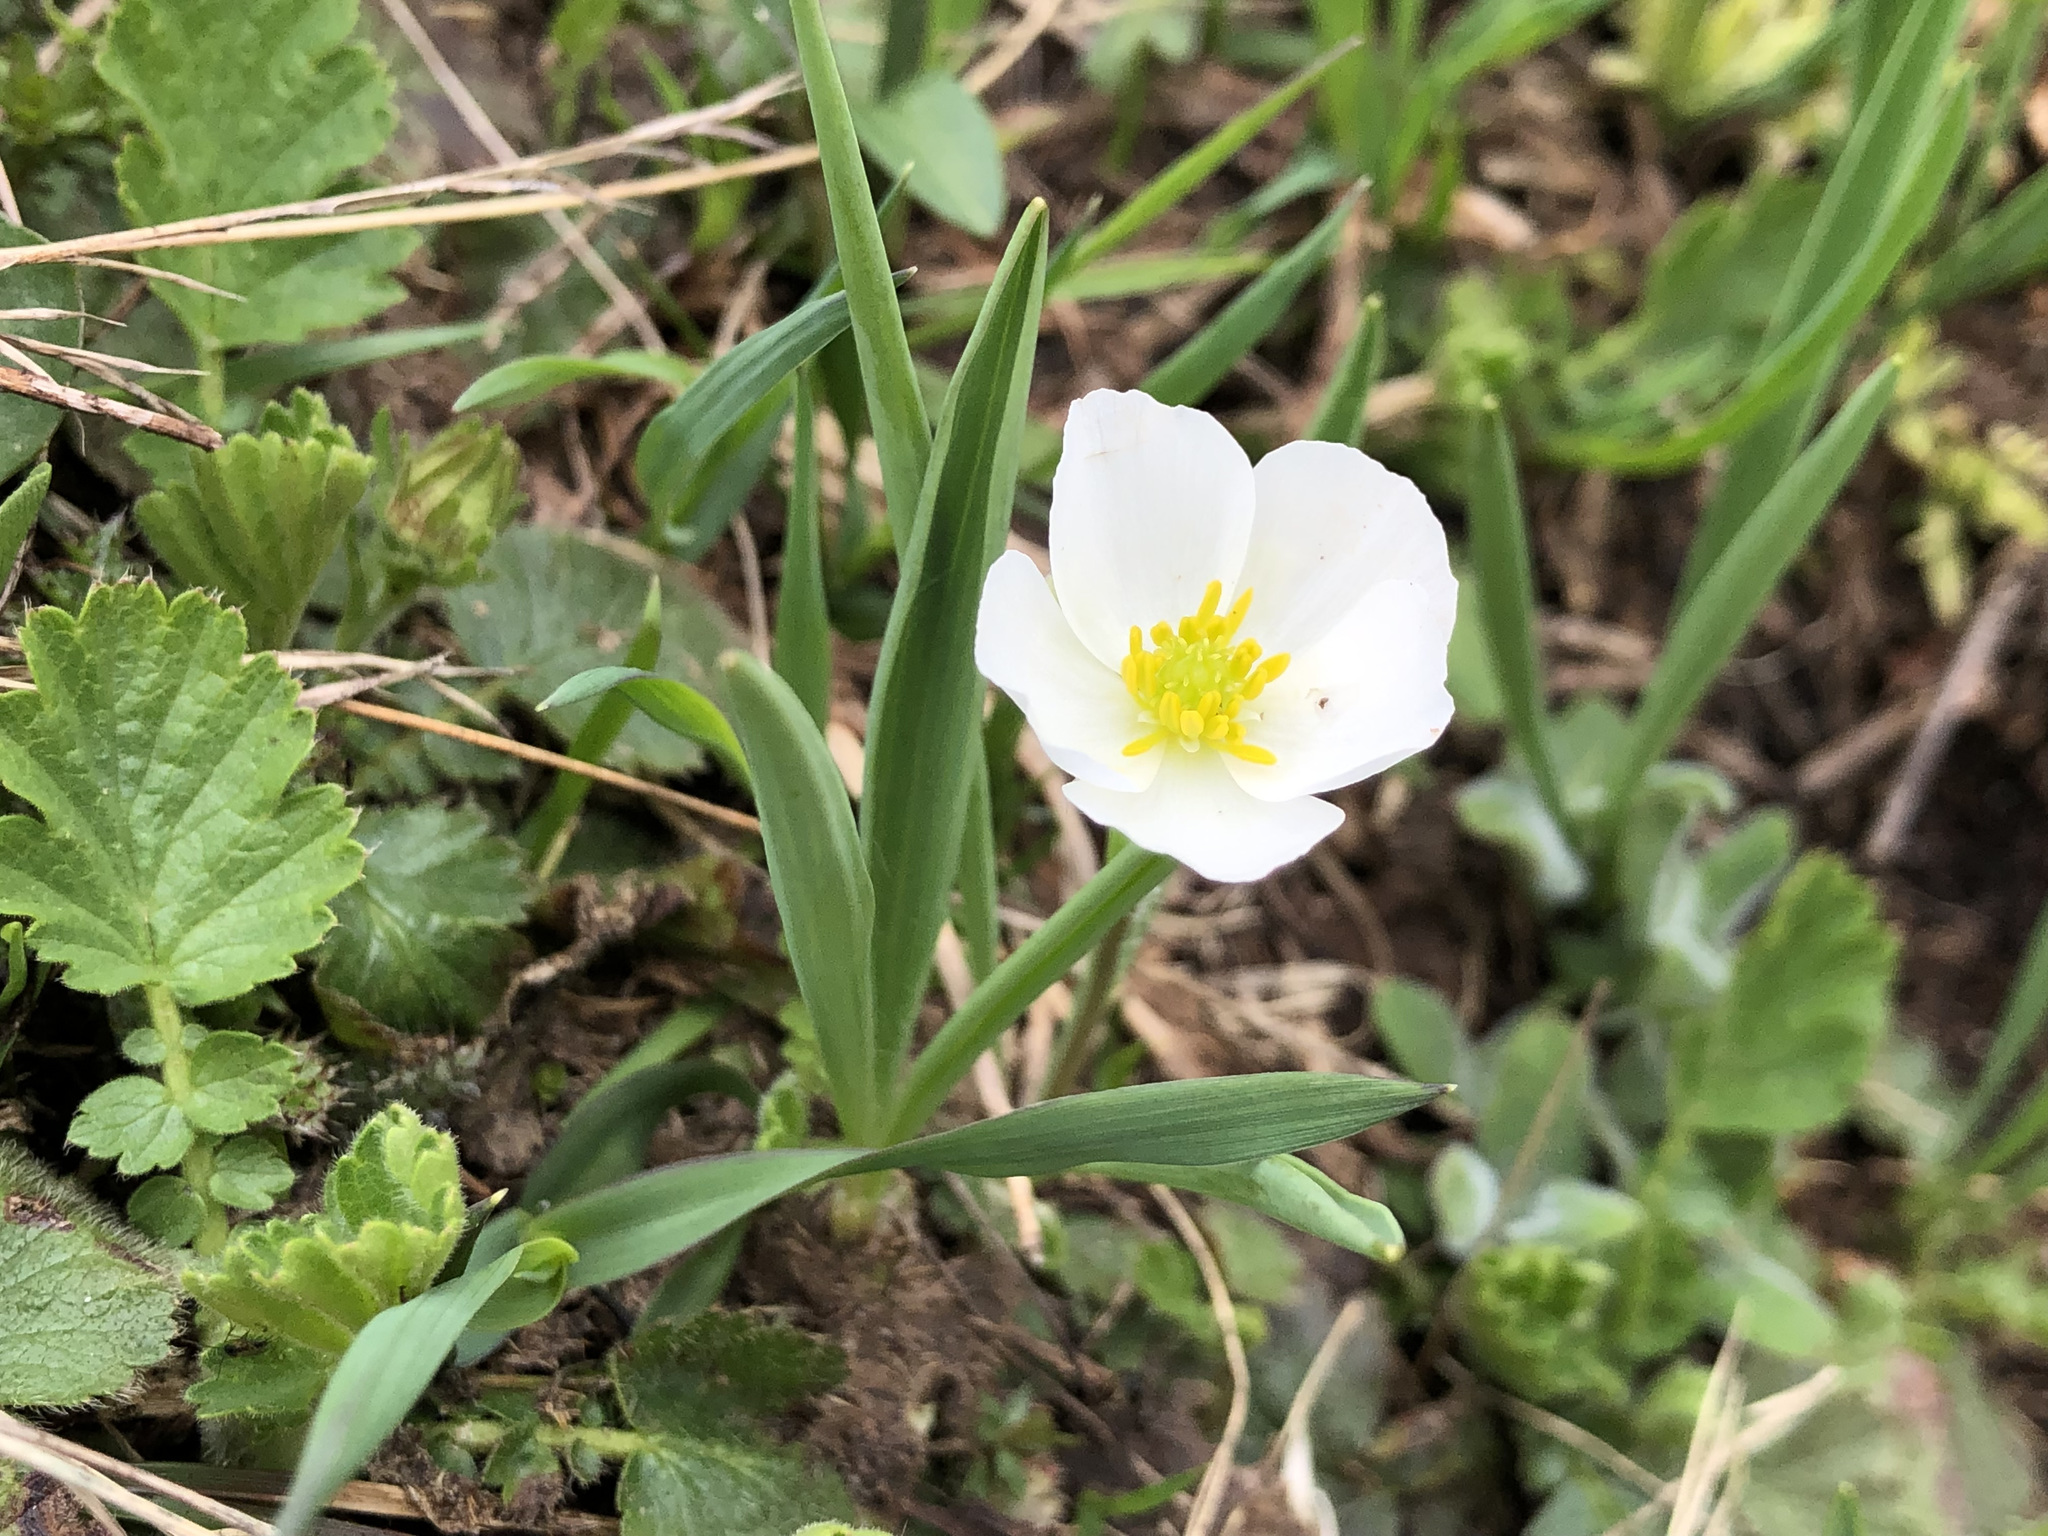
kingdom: Plantae
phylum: Tracheophyta
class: Magnoliopsida
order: Ranunculales
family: Ranunculaceae
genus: Ranunculus
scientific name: Ranunculus kuepferi
